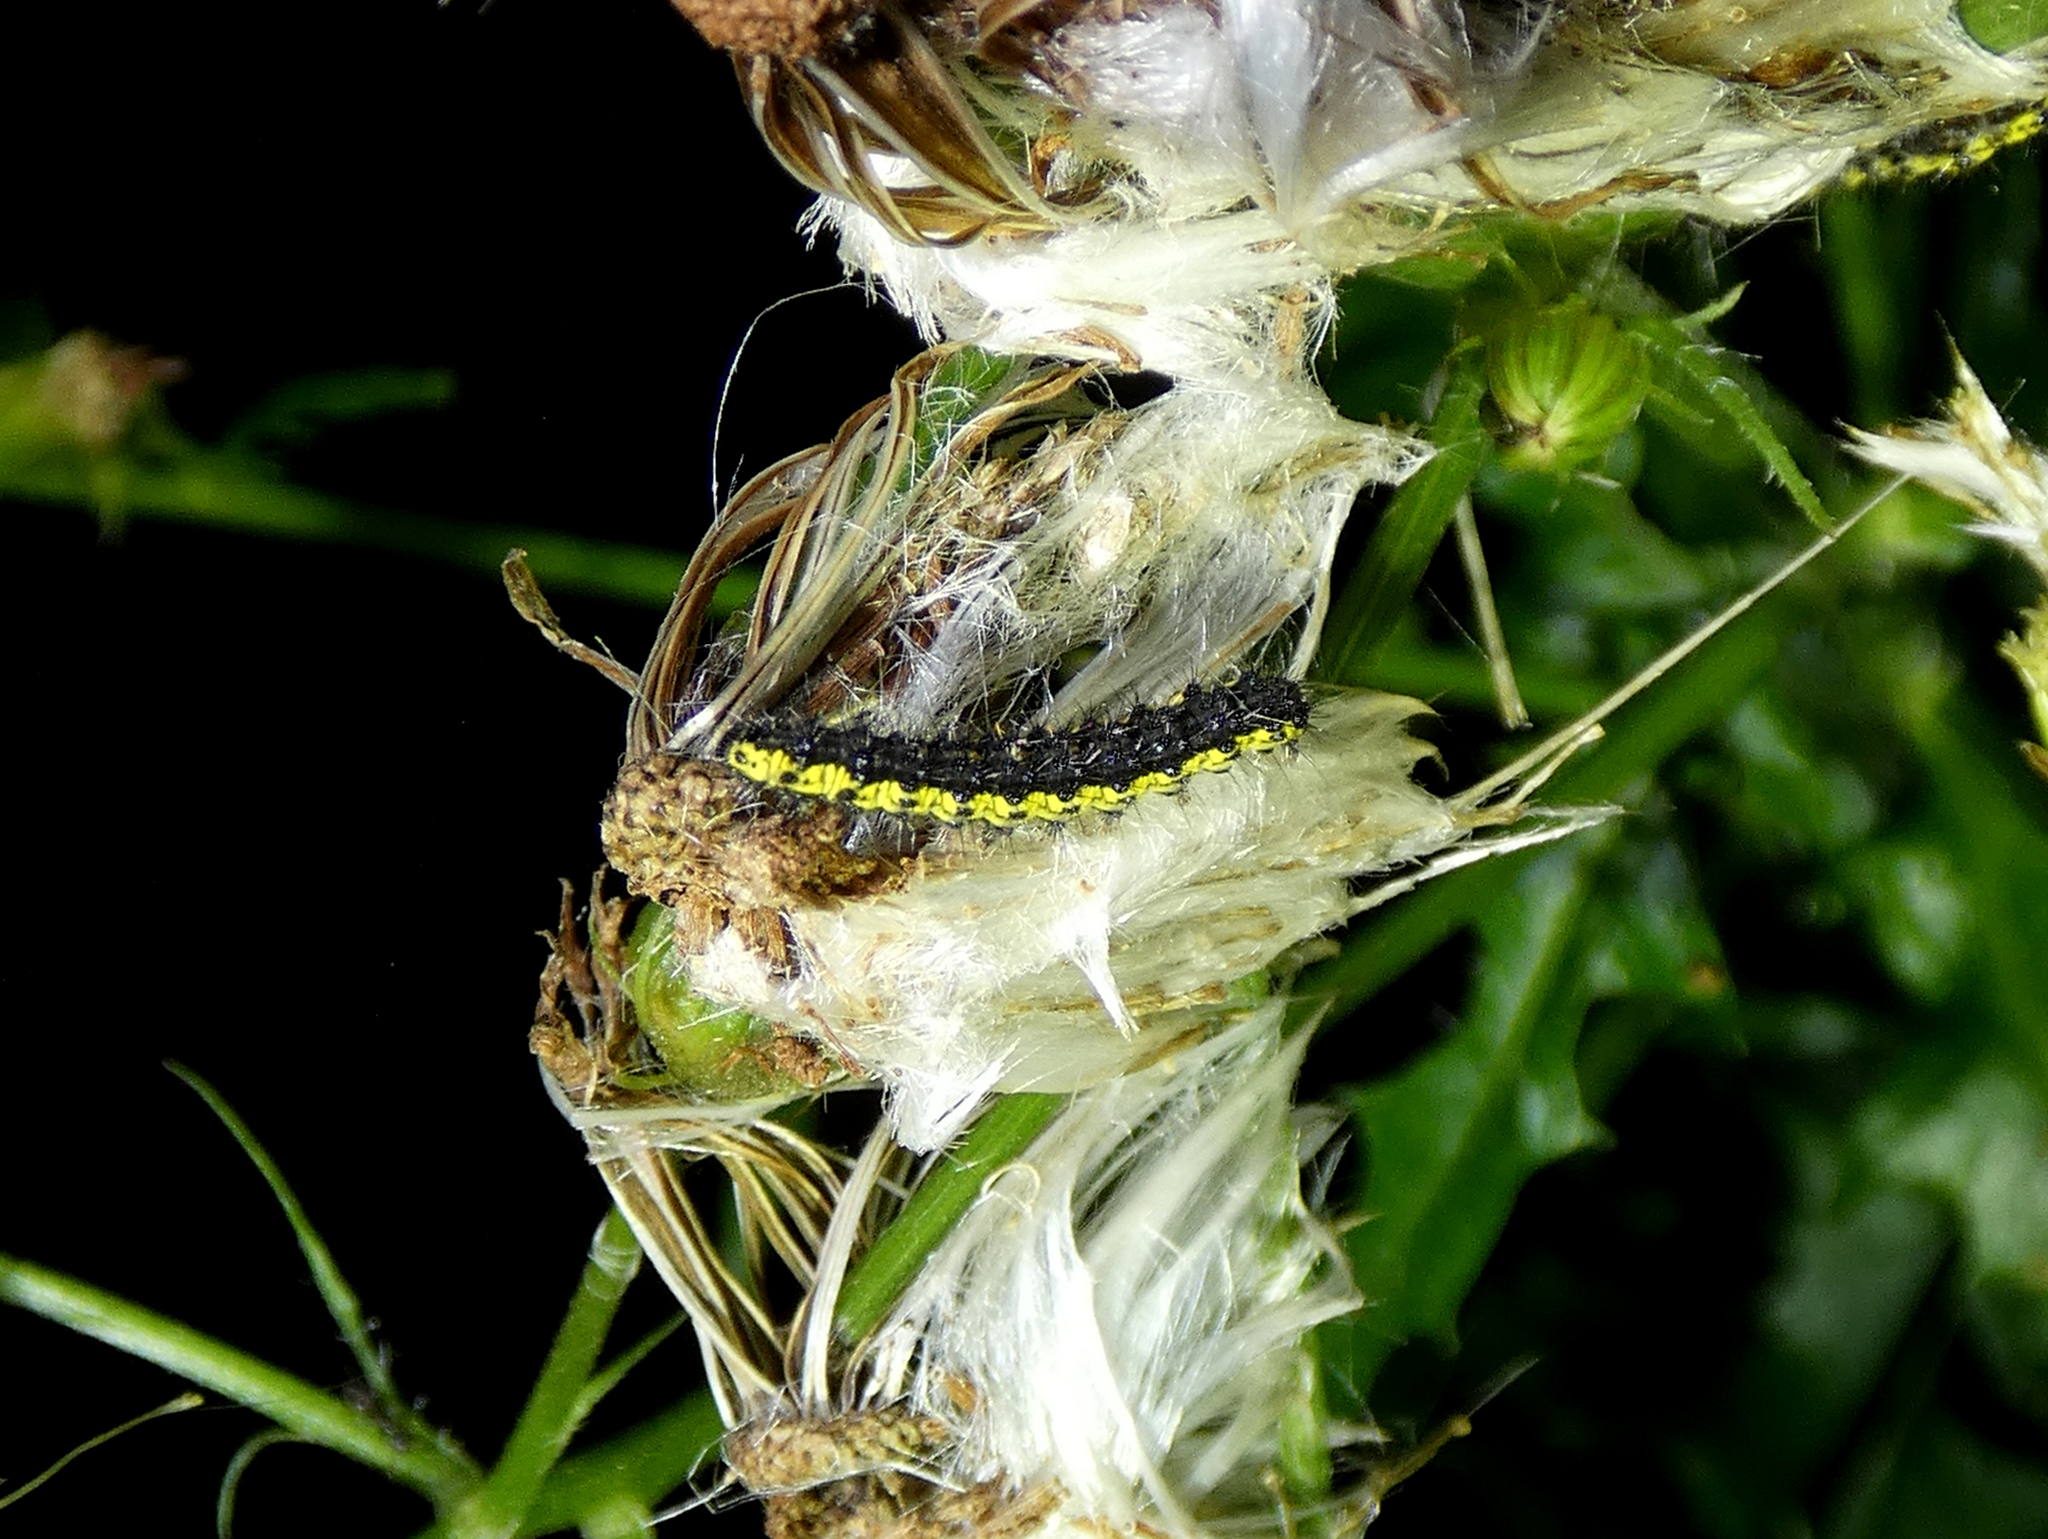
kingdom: Animalia
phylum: Arthropoda
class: Insecta
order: Lepidoptera
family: Erebidae
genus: Haploa
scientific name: Haploa contigua
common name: Neighbor moth
